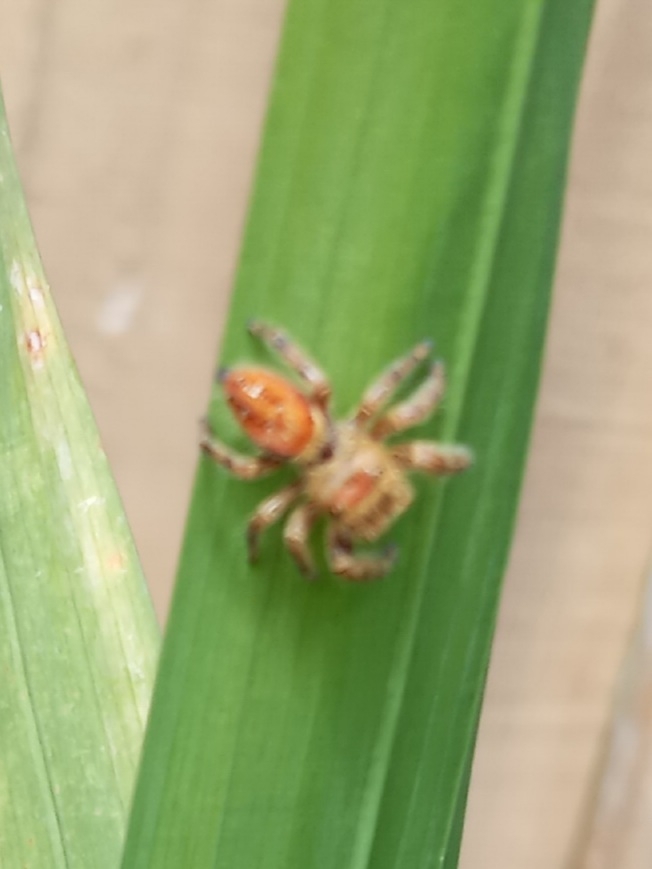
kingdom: Animalia
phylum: Arthropoda
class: Arachnida
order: Araneae
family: Salticidae
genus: Phidippus
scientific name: Phidippus clarus
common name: Brilliant jumping spider
